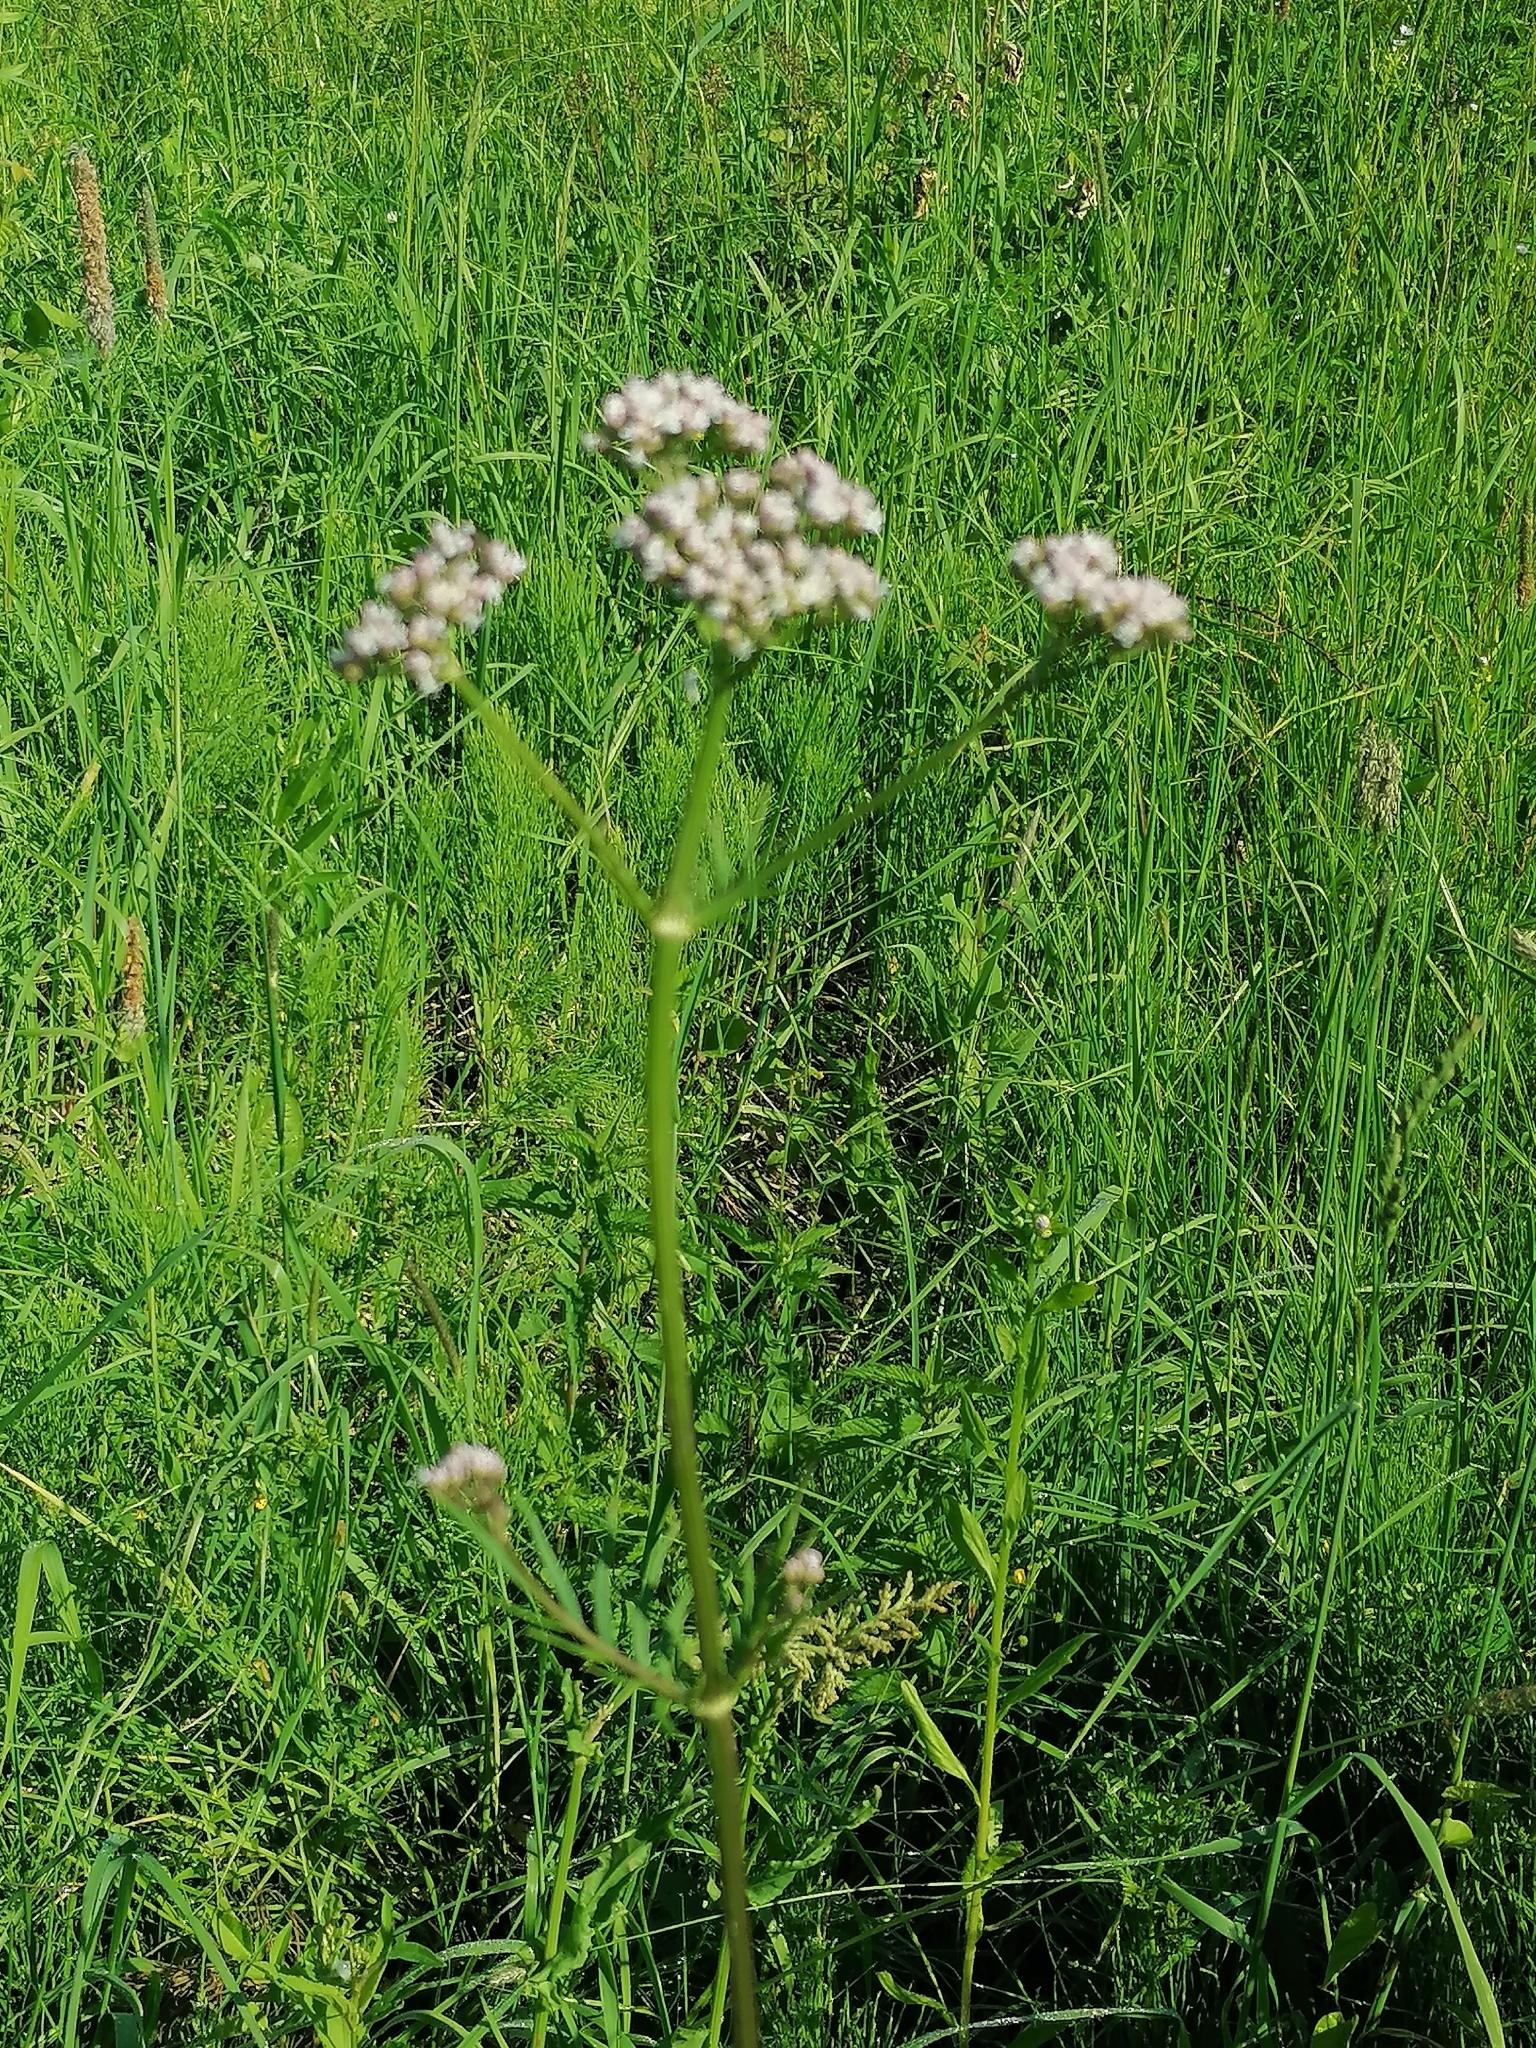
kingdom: Plantae
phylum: Tracheophyta
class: Magnoliopsida
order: Dipsacales
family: Caprifoliaceae
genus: Valeriana
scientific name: Valeriana officinalis
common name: Common valerian
